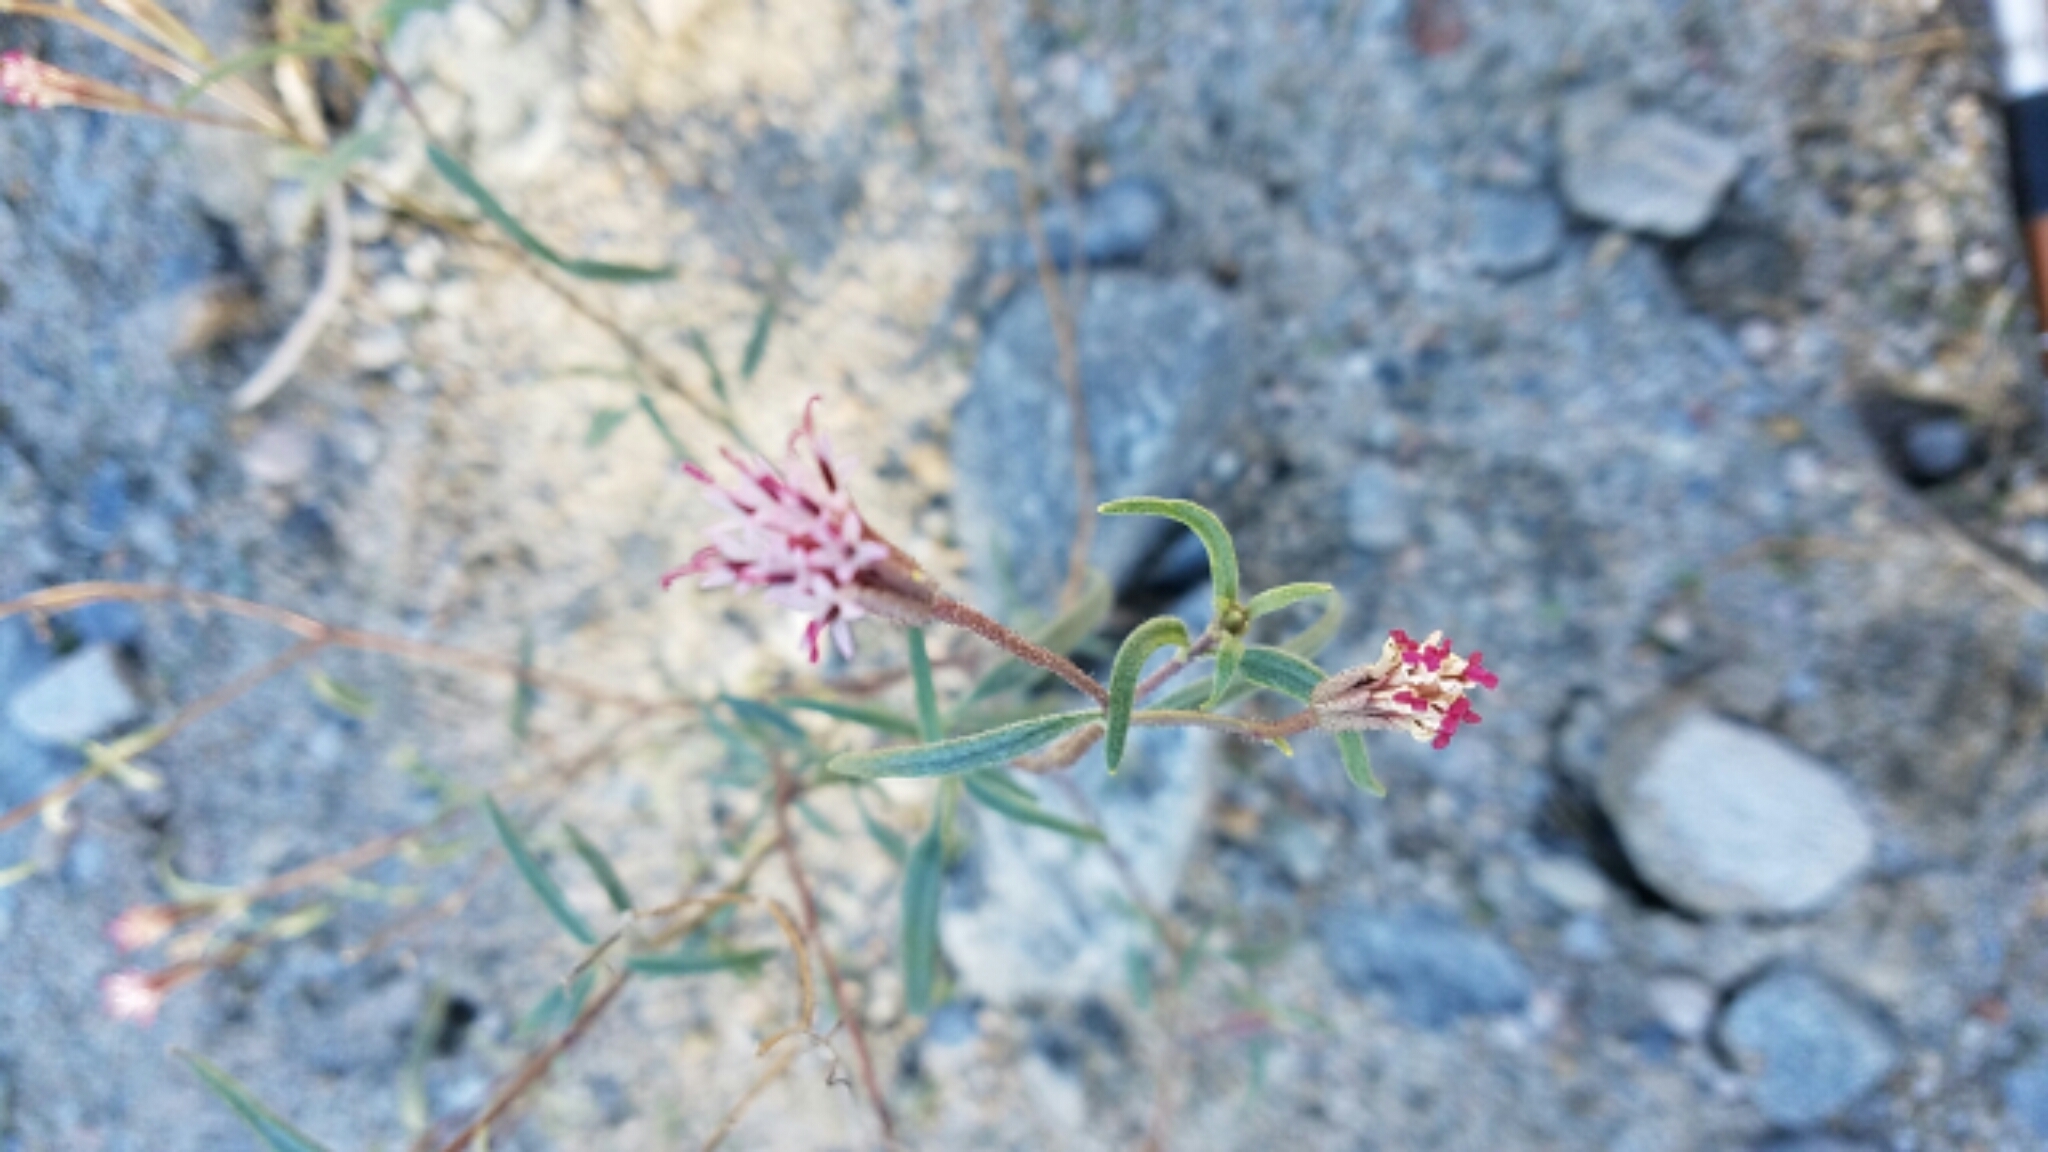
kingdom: Plantae
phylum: Tracheophyta
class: Magnoliopsida
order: Asterales
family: Asteraceae
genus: Palafoxia
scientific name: Palafoxia arida
